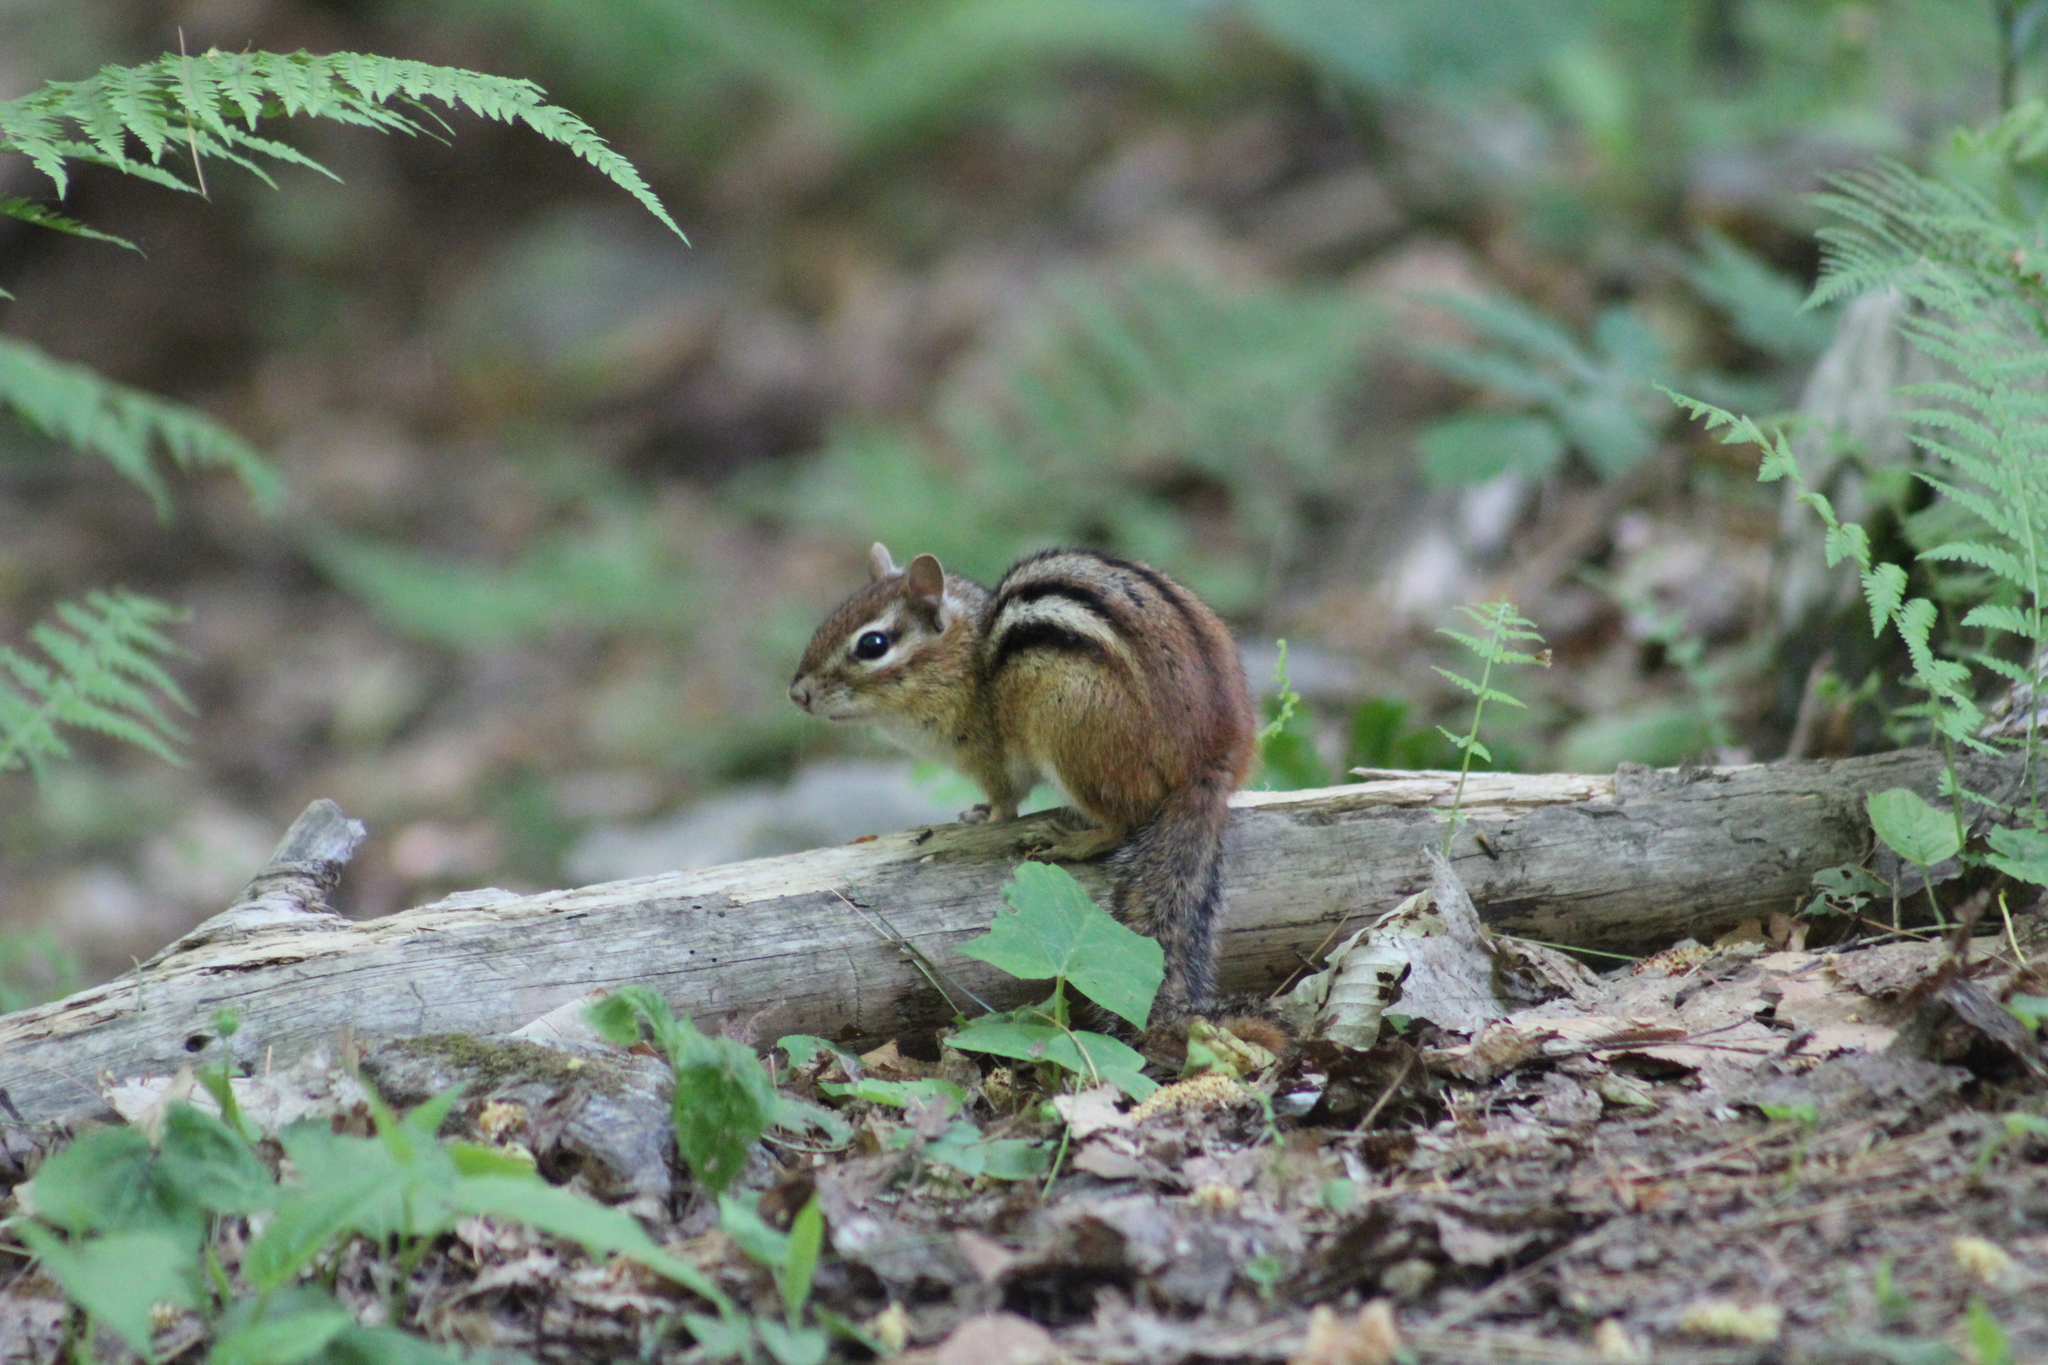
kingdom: Animalia
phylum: Chordata
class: Mammalia
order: Rodentia
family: Sciuridae
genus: Tamias
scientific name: Tamias striatus
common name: Eastern chipmunk
